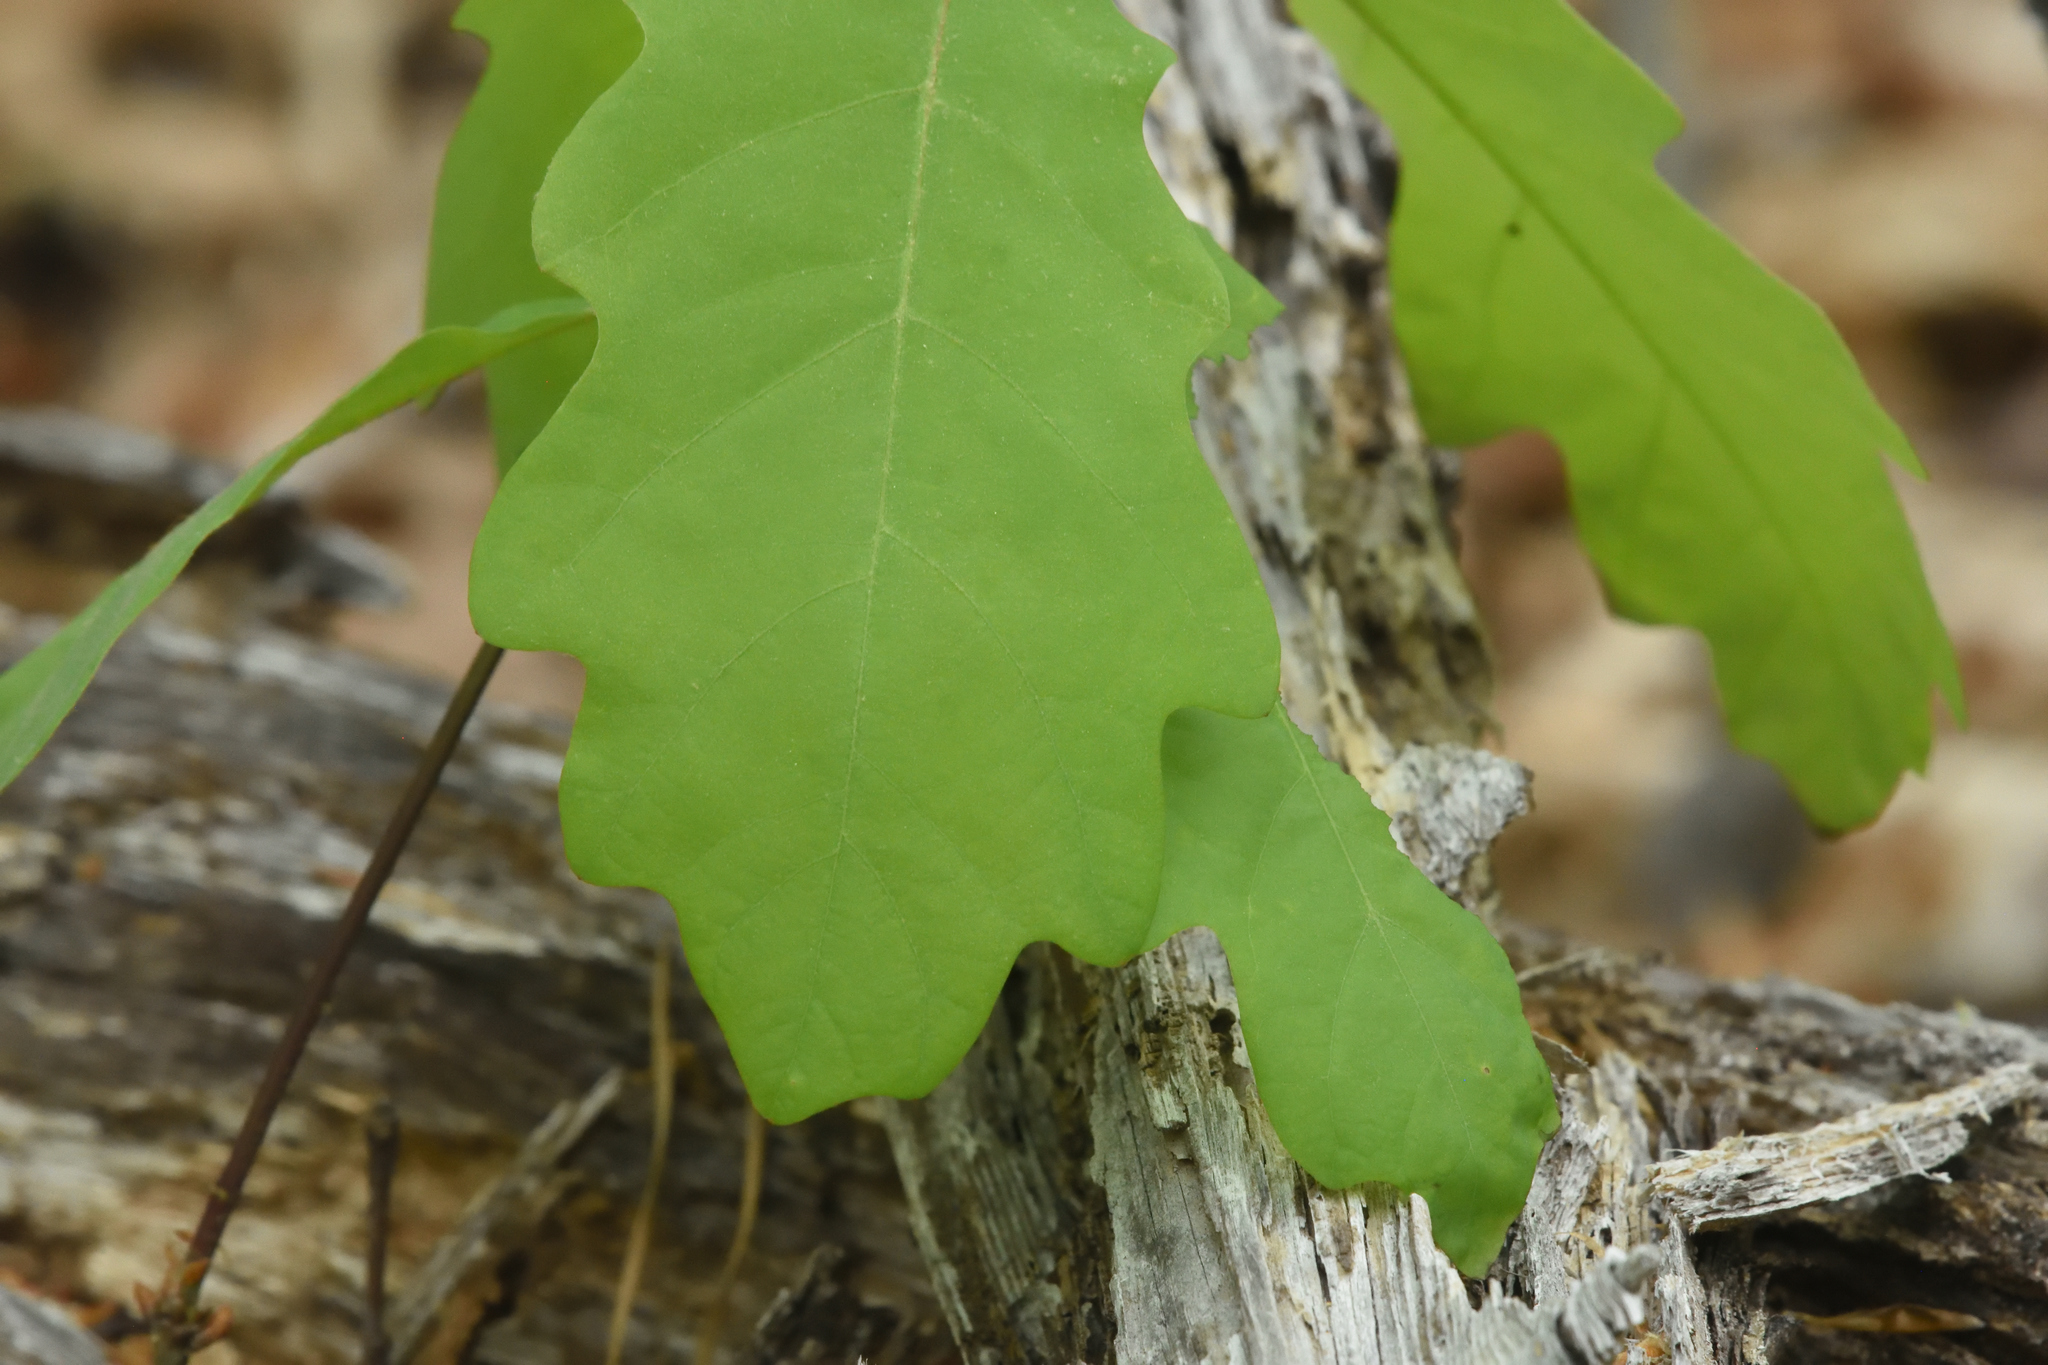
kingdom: Plantae
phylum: Tracheophyta
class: Magnoliopsida
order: Fagales
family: Fagaceae
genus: Quercus
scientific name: Quercus alba
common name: White oak
